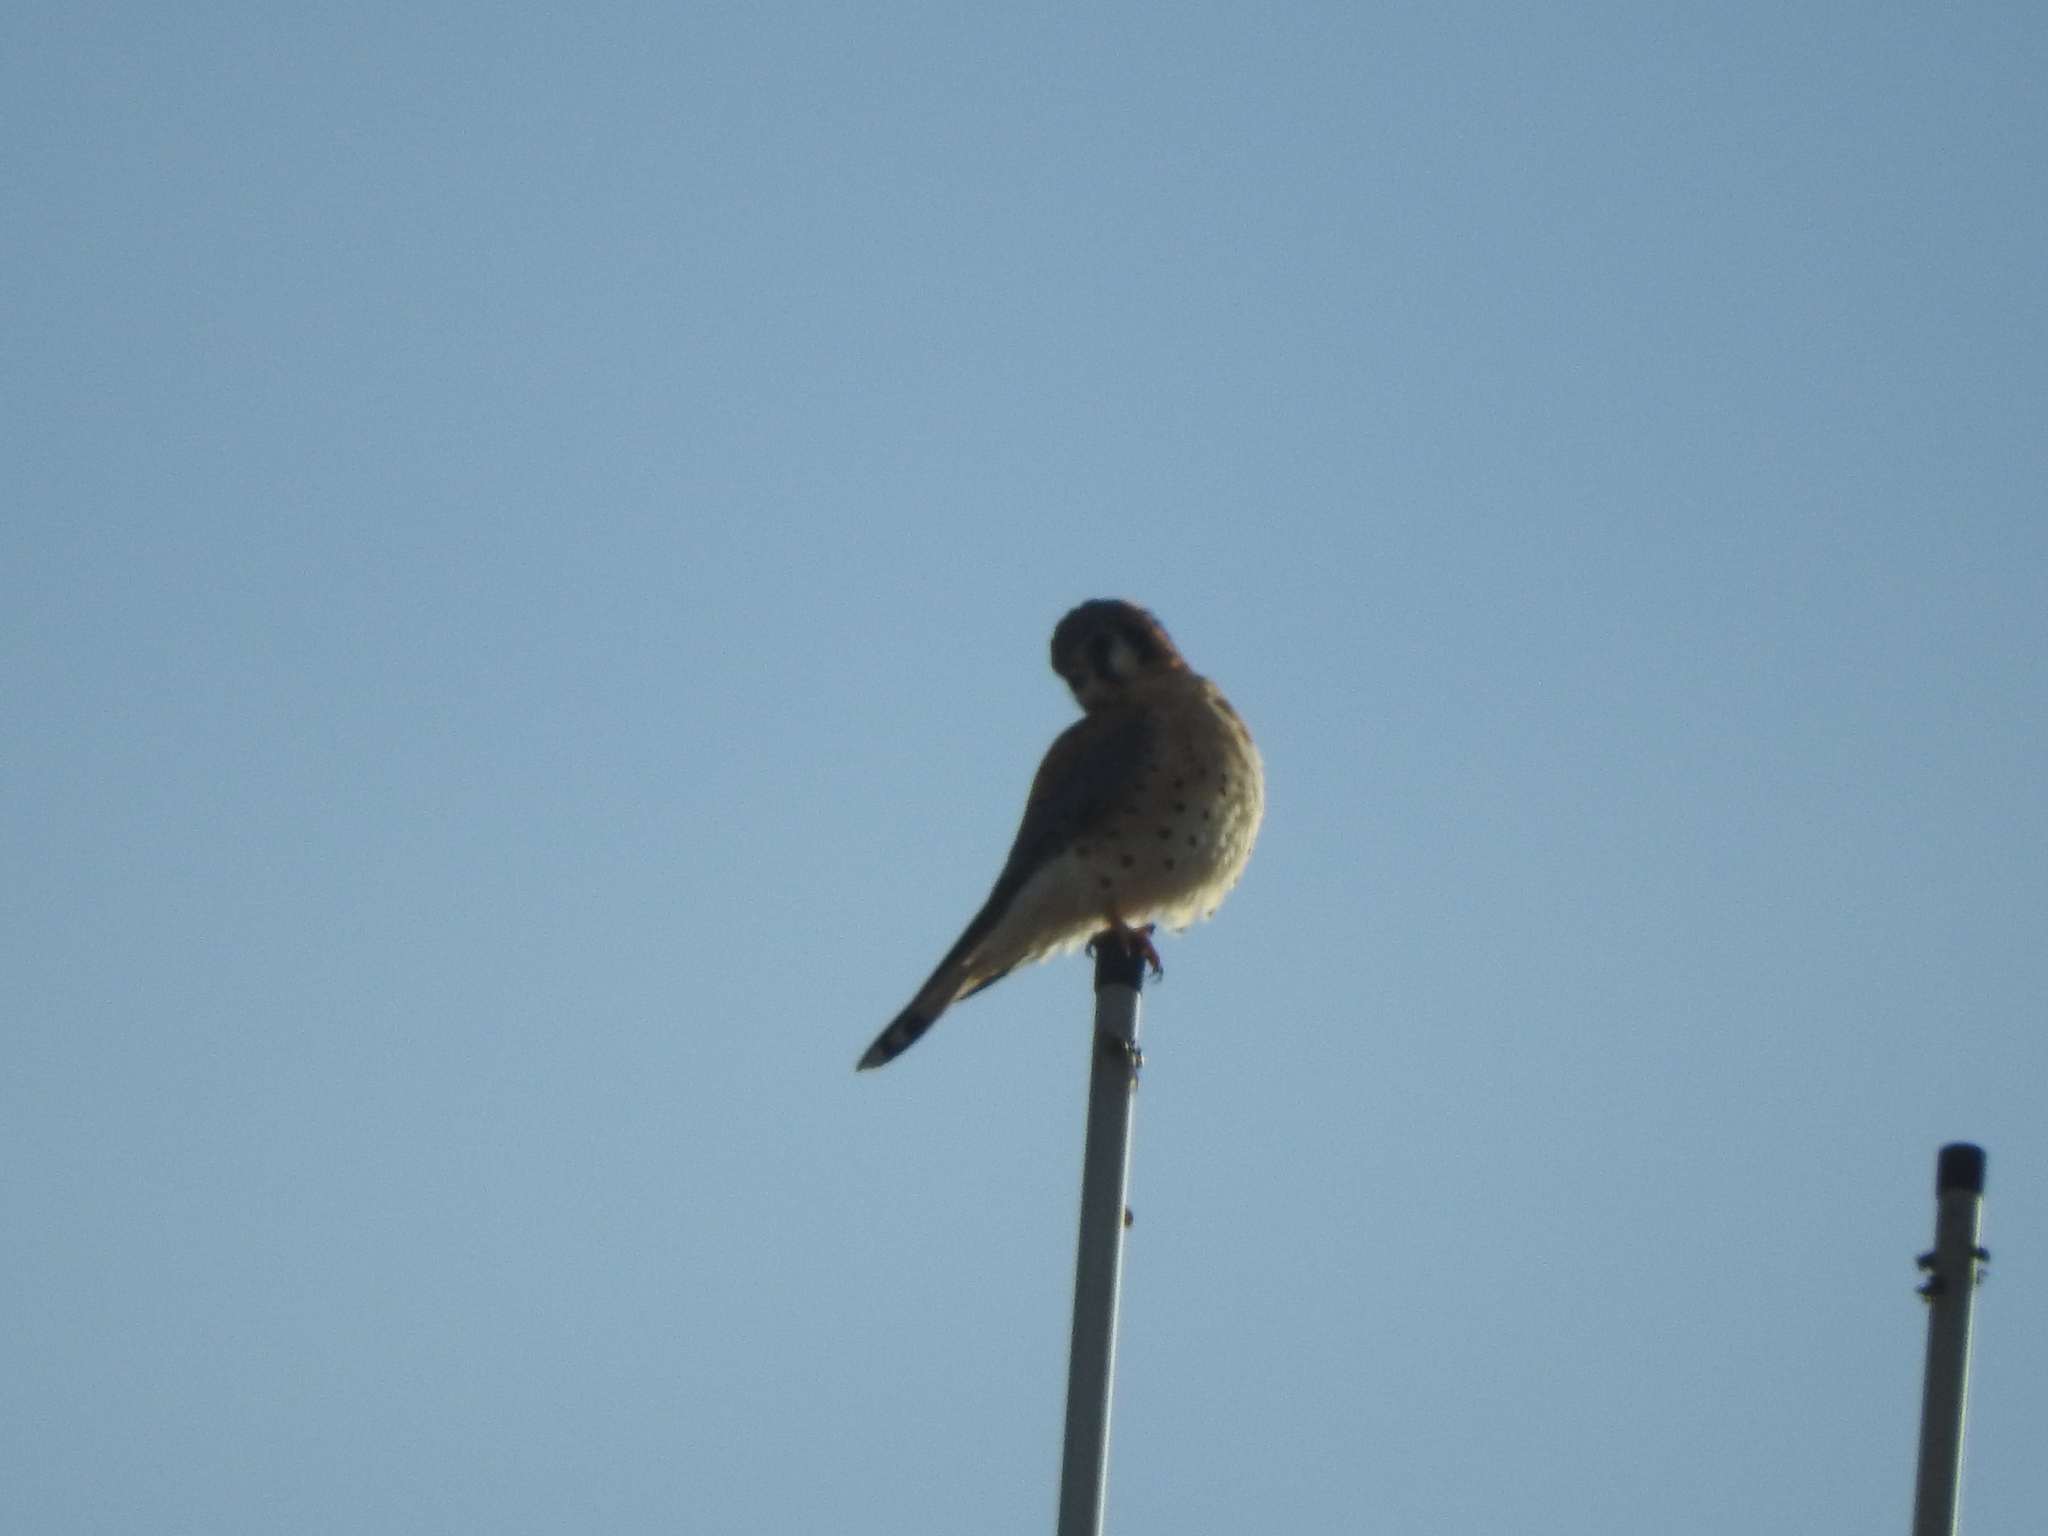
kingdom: Animalia
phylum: Chordata
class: Aves
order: Falconiformes
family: Falconidae
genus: Falco
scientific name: Falco sparverius
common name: American kestrel
